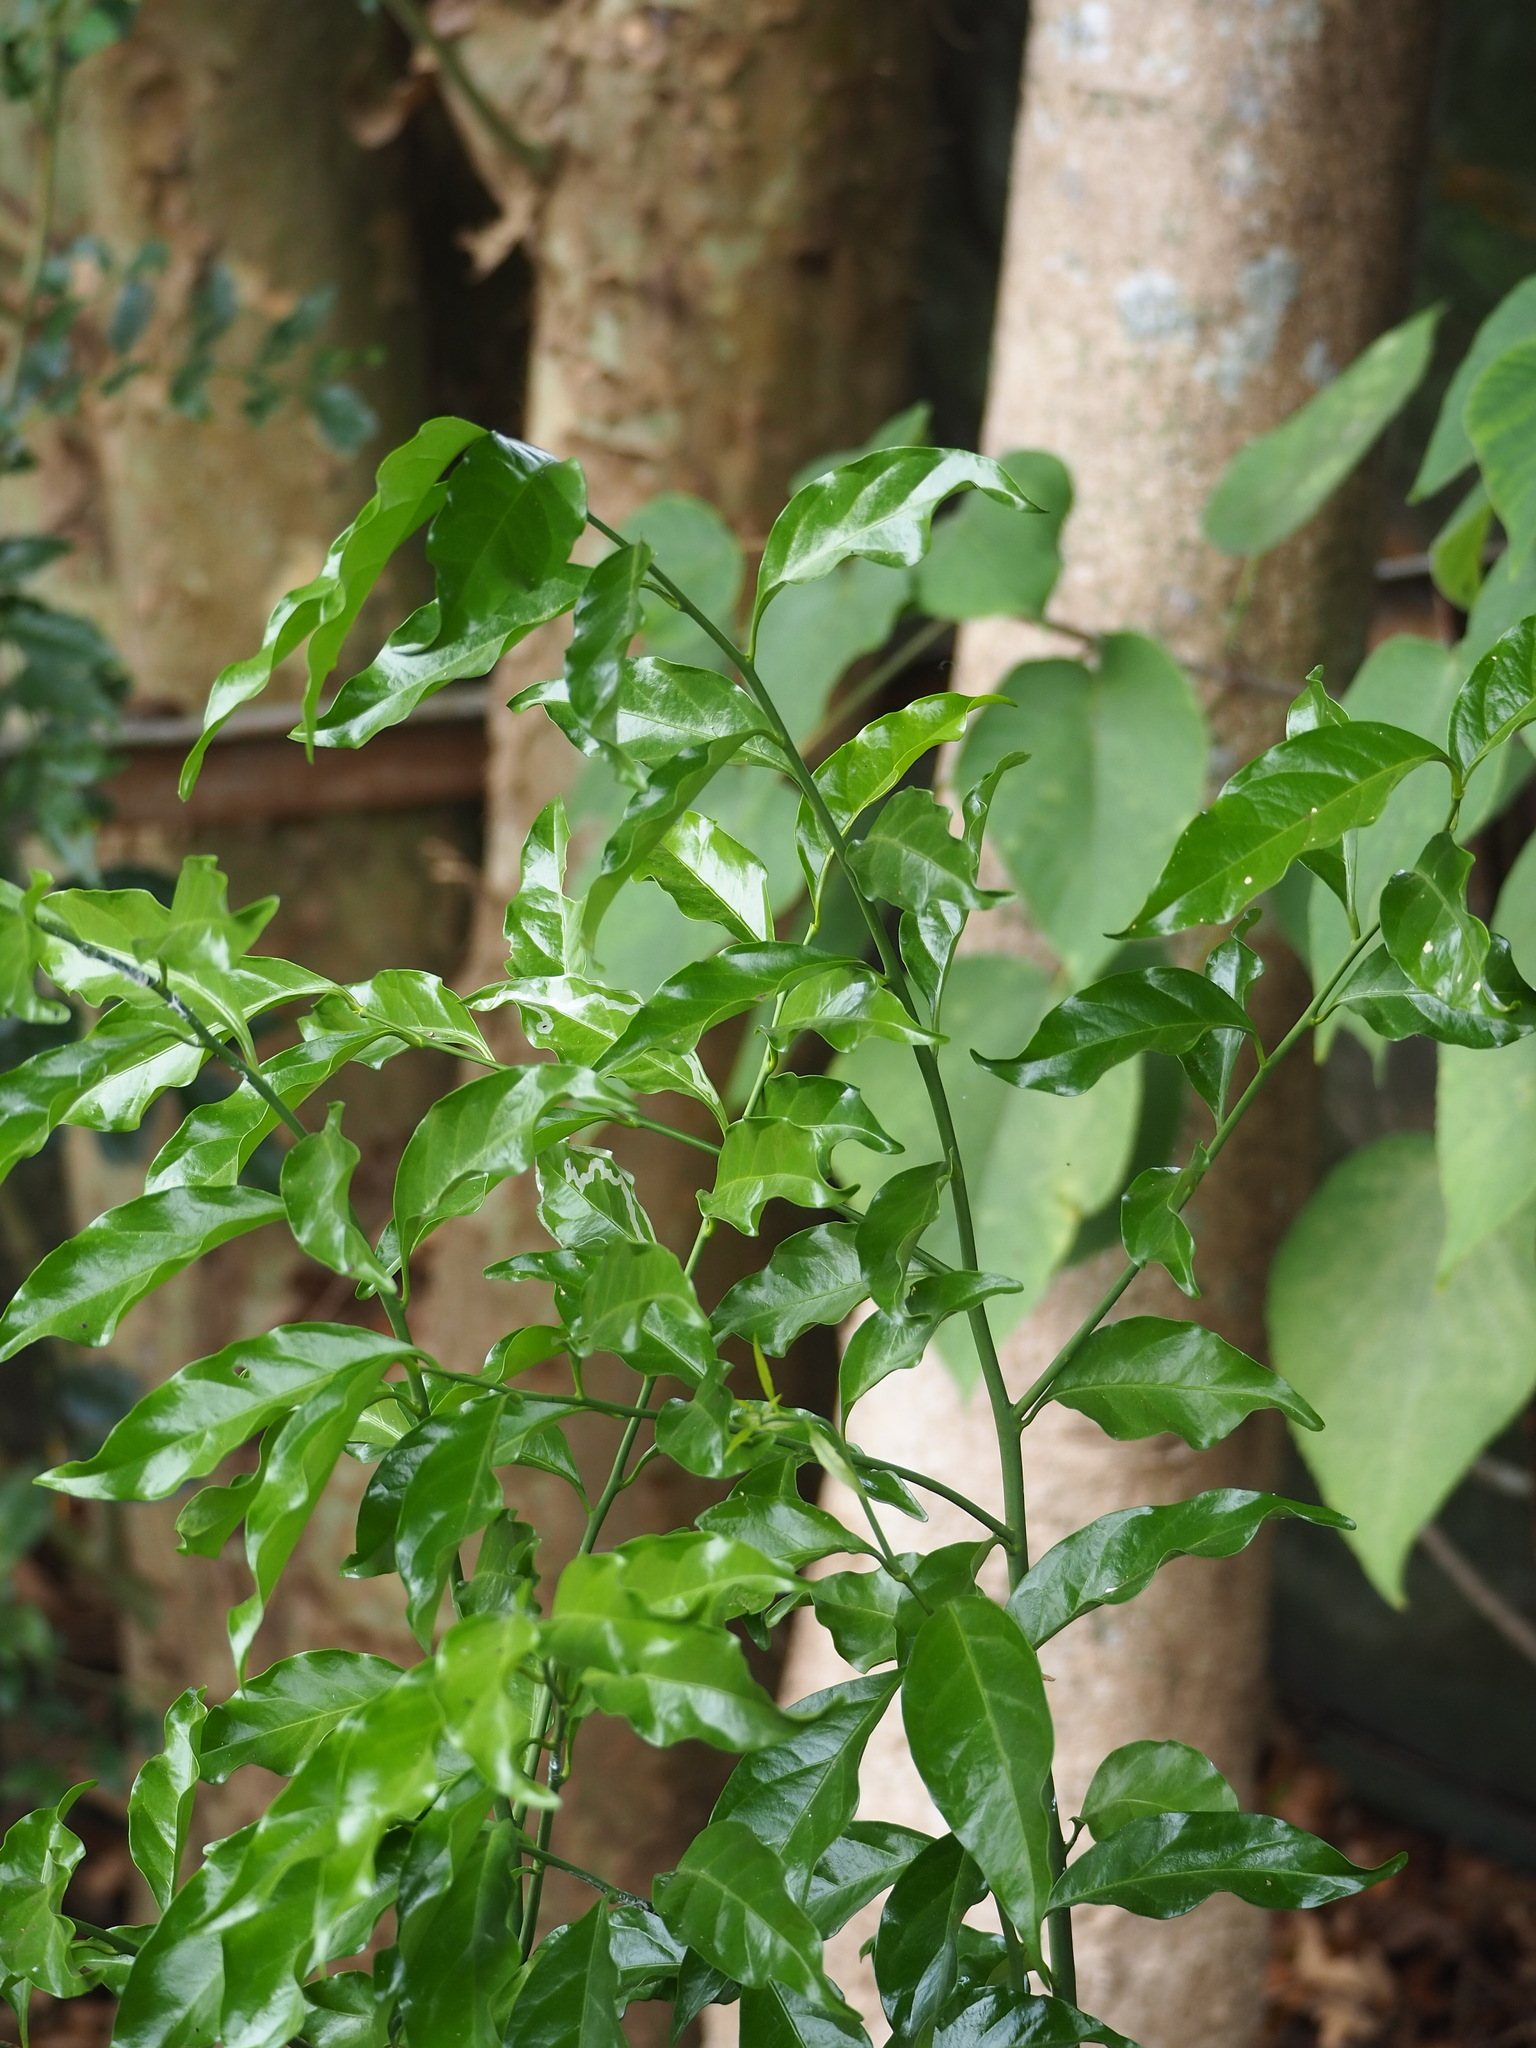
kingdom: Plantae
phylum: Tracheophyta
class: Magnoliopsida
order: Santalales
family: Opiliaceae
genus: Champereia
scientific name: Champereia manillana
